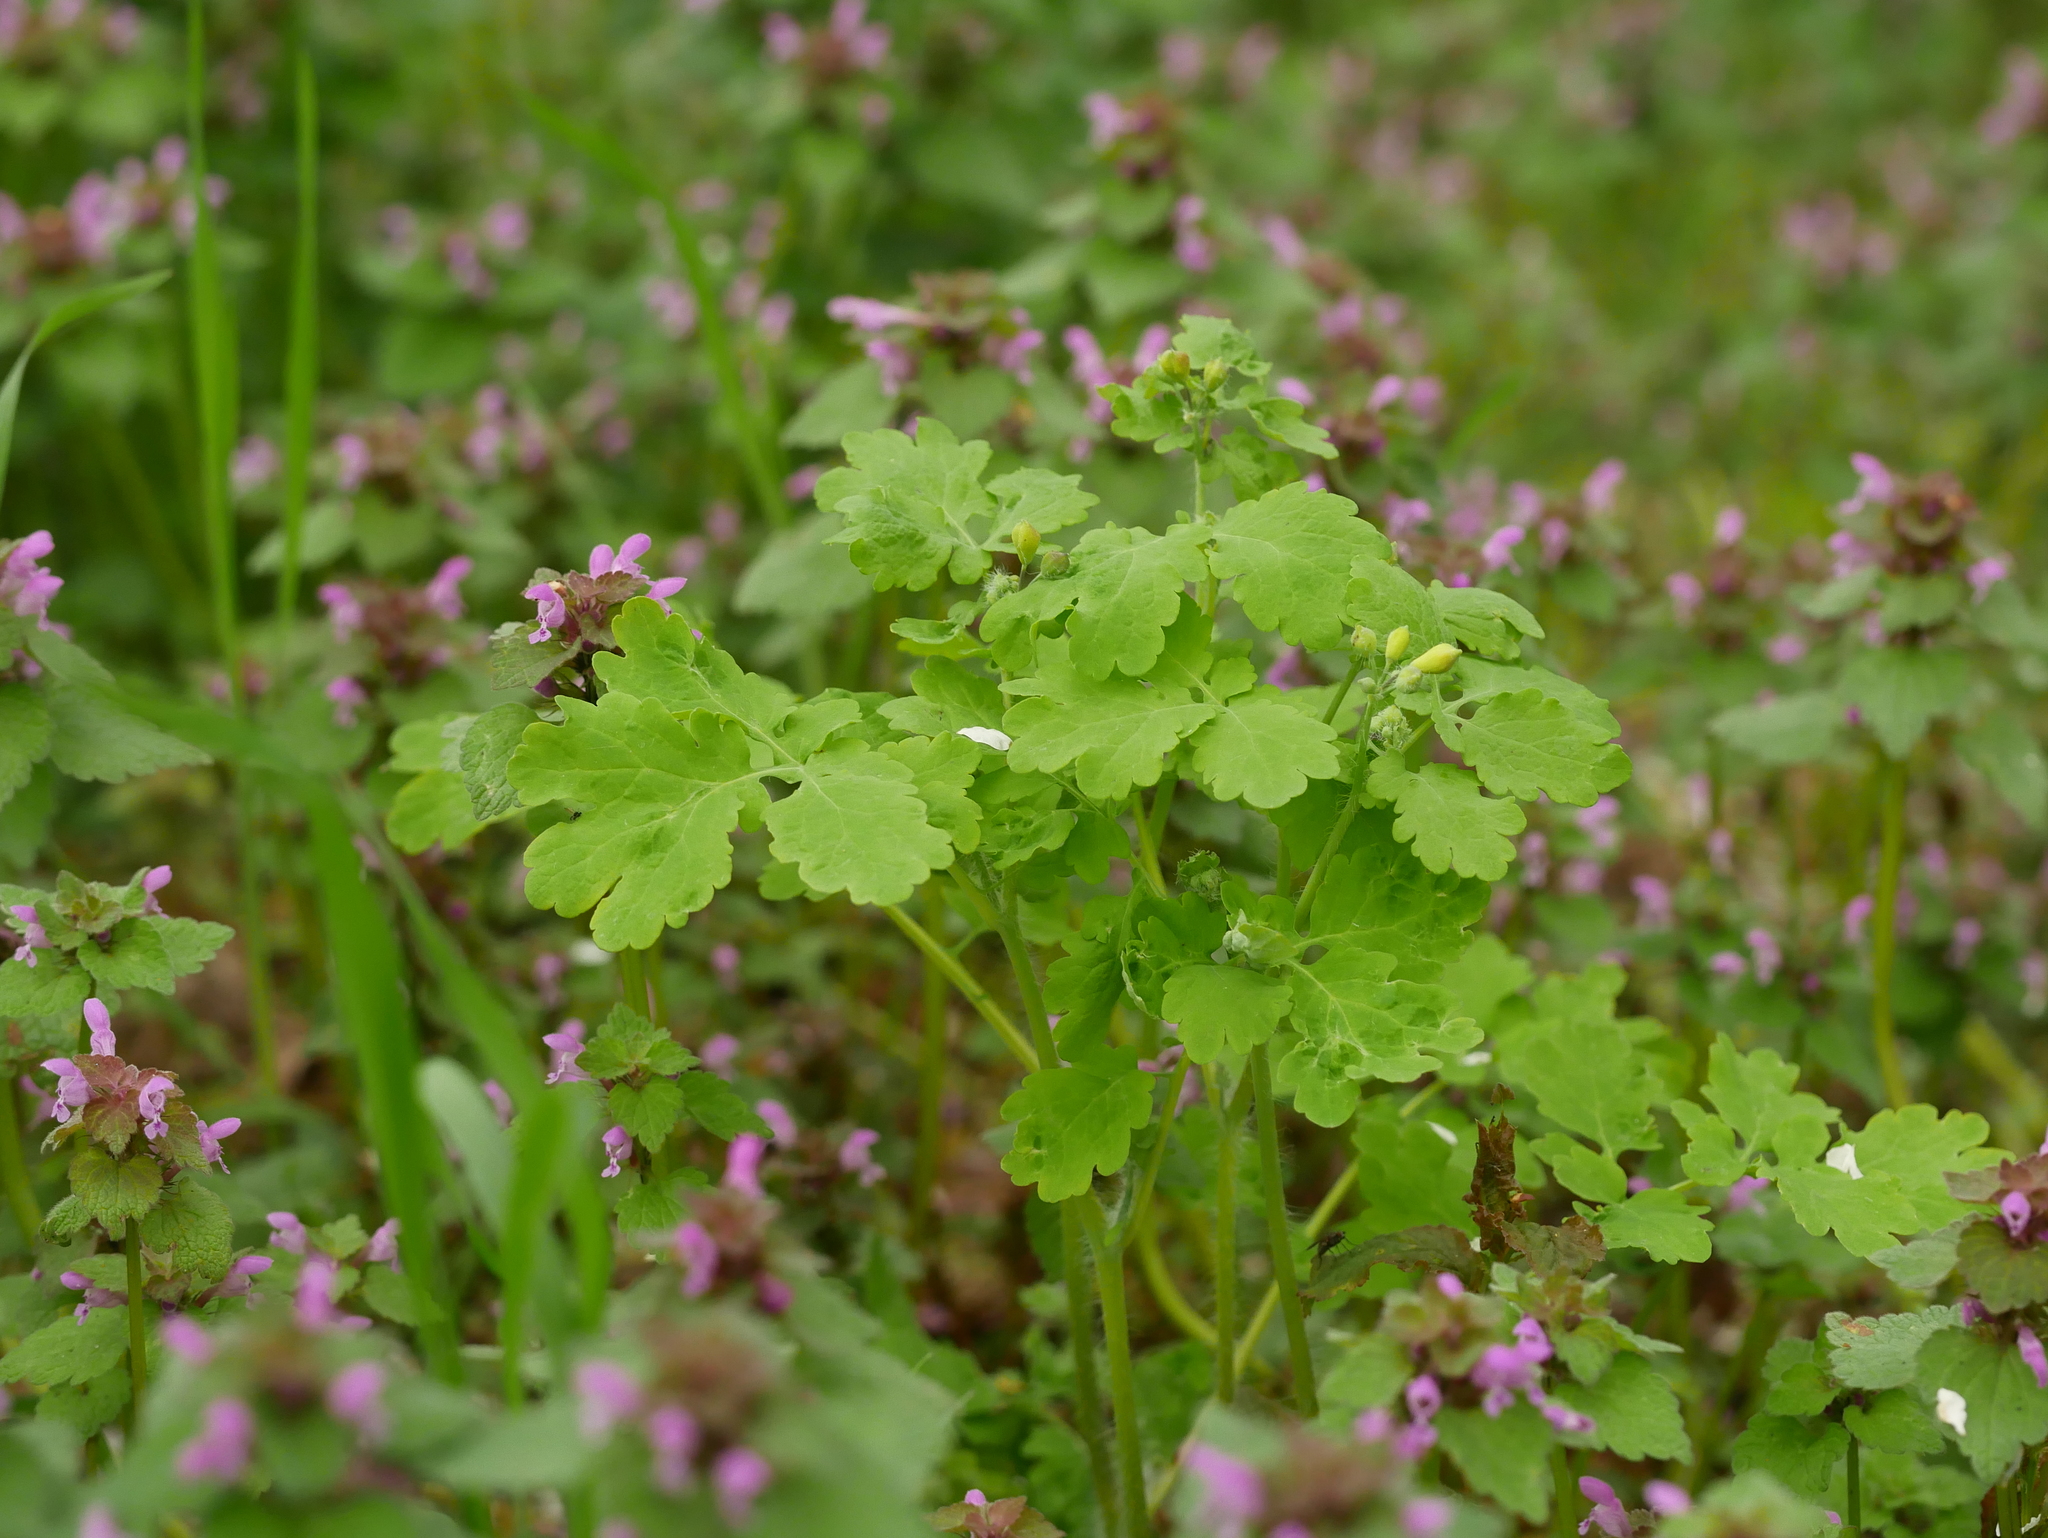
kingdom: Plantae
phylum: Tracheophyta
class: Magnoliopsida
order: Ranunculales
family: Papaveraceae
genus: Chelidonium
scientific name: Chelidonium majus
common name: Greater celandine
